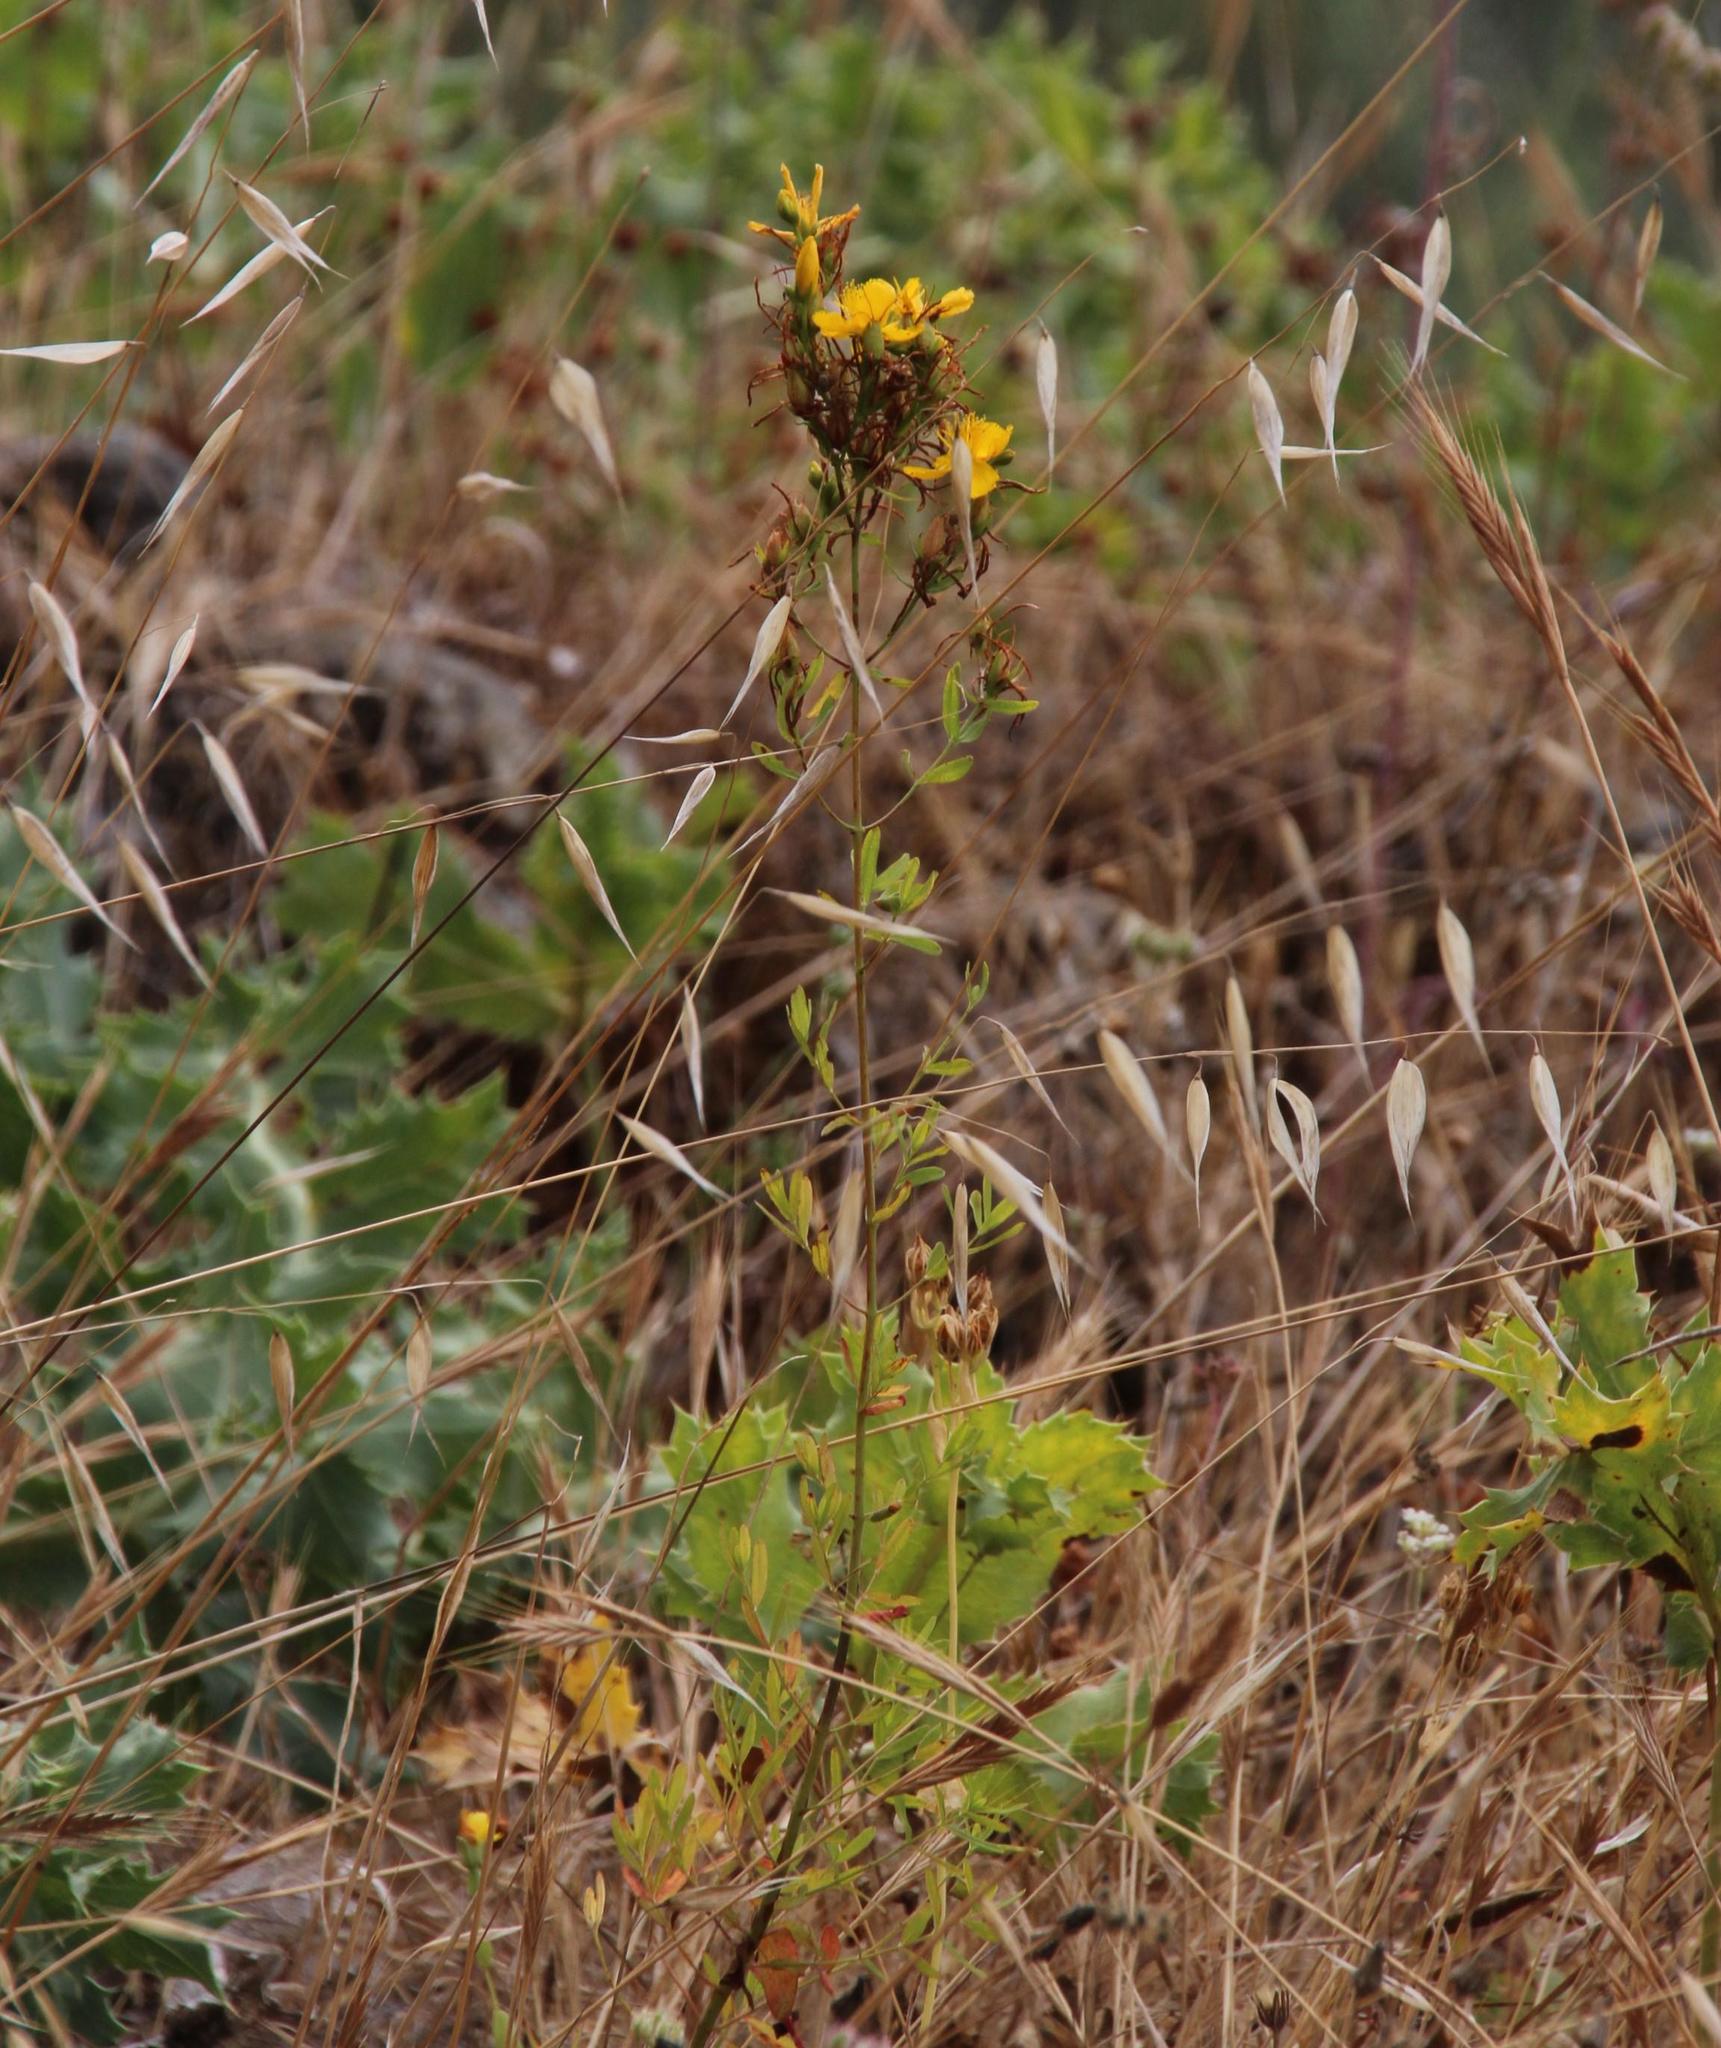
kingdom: Plantae
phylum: Tracheophyta
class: Magnoliopsida
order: Malpighiales
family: Hypericaceae
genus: Hypericum
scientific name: Hypericum perforatum
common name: Common st. johnswort
